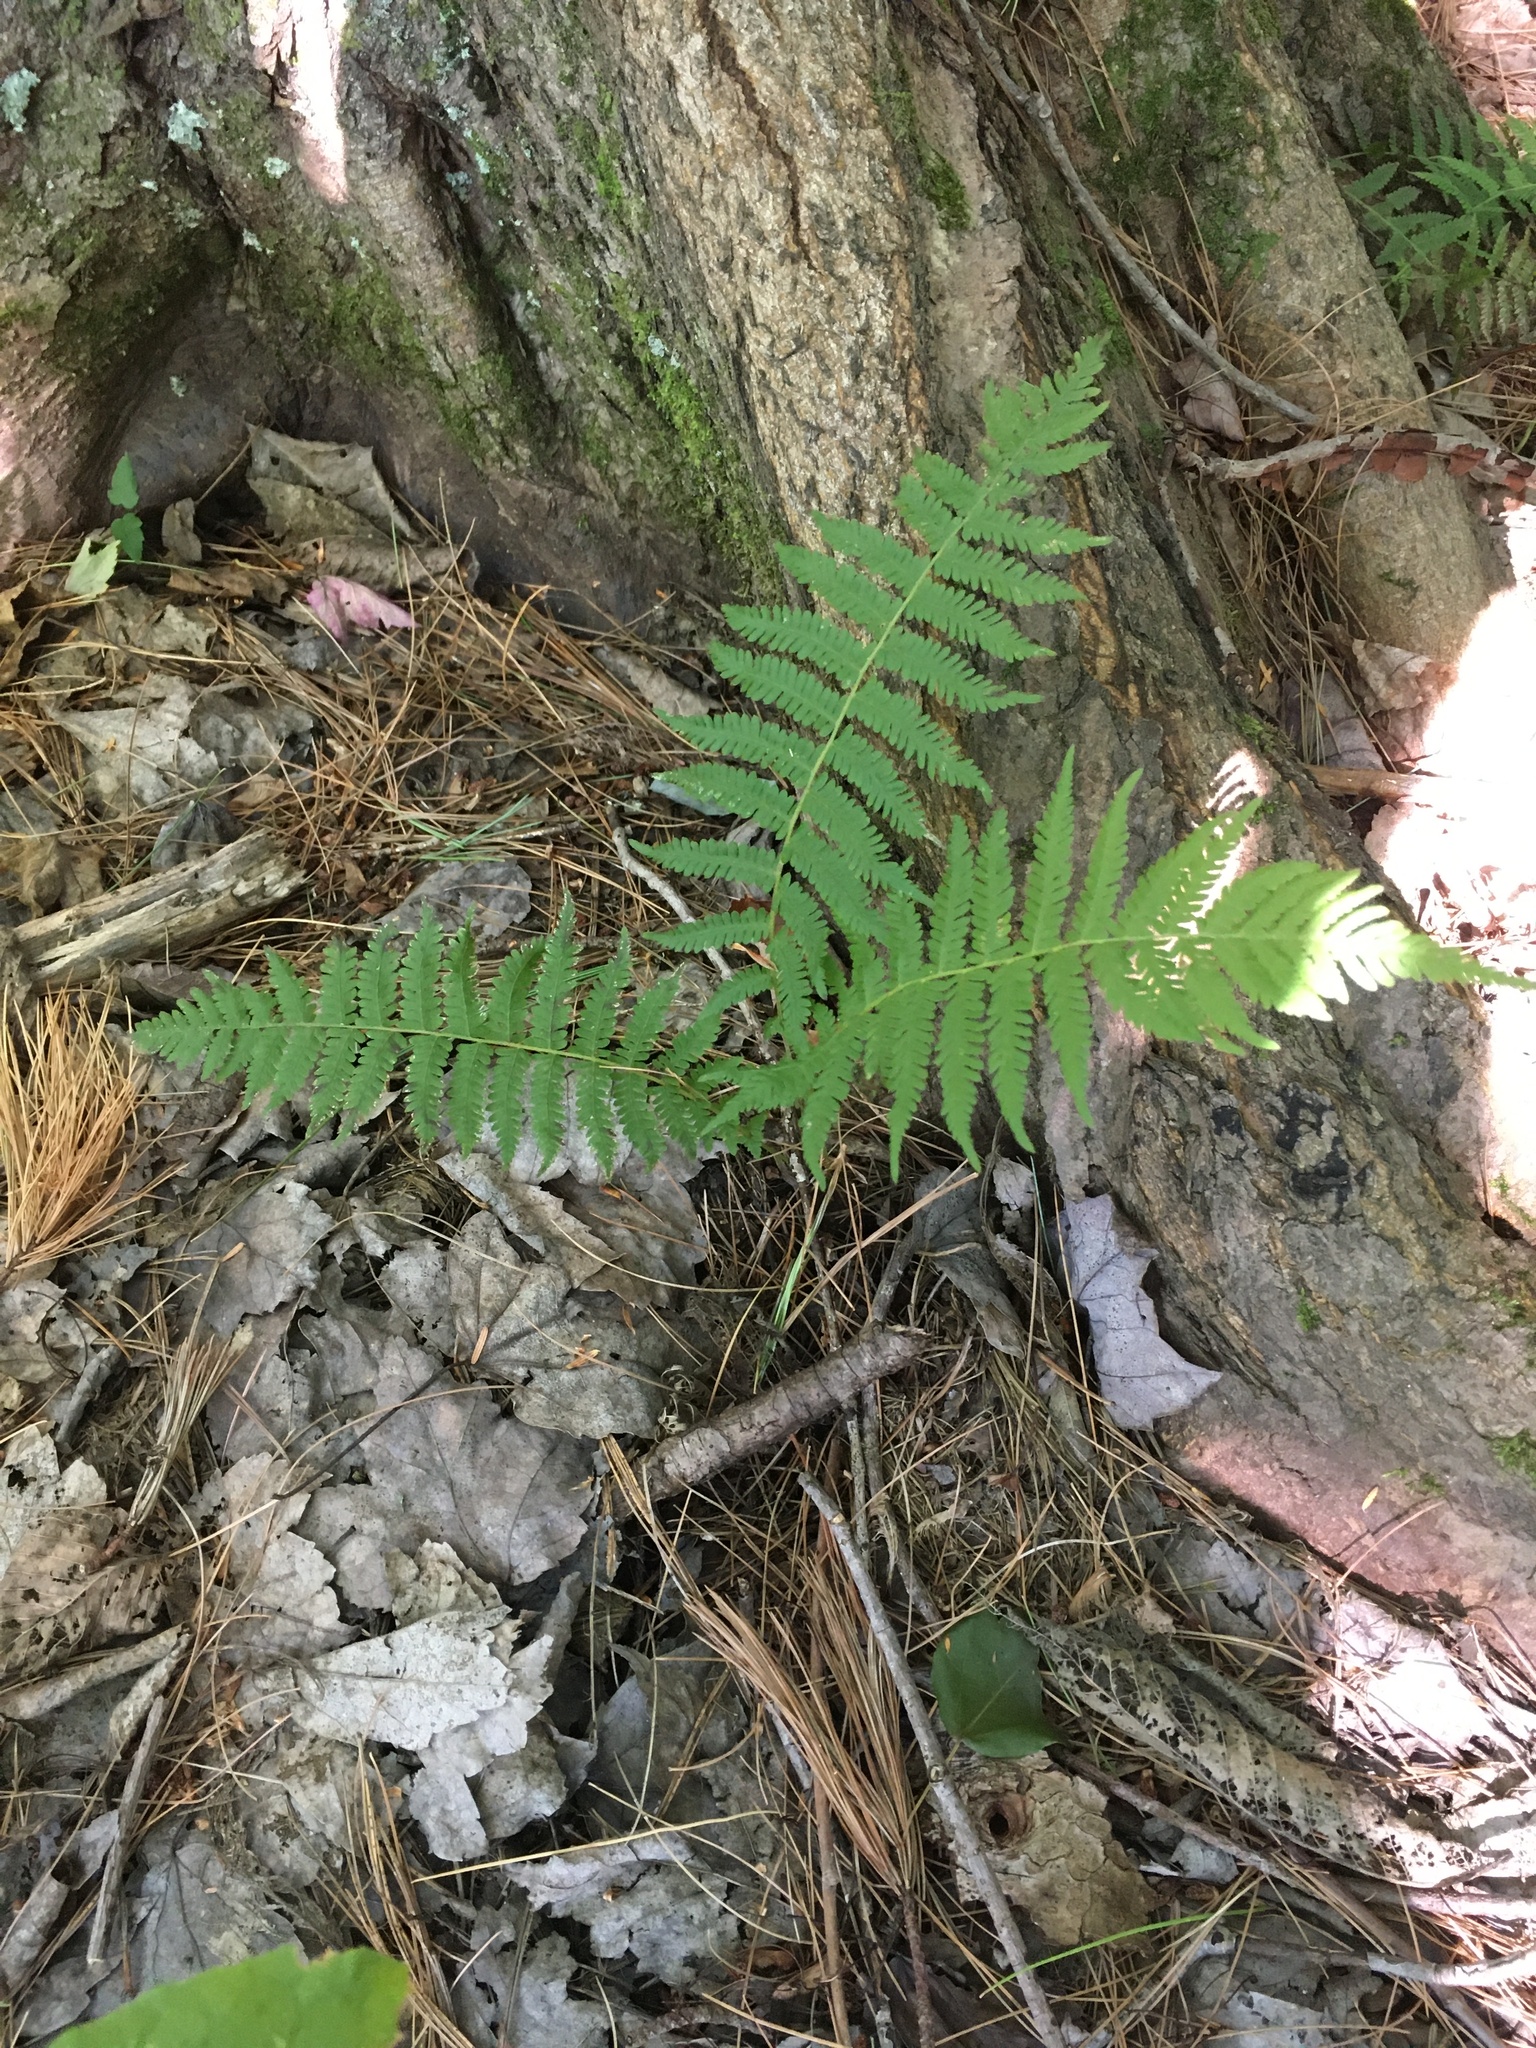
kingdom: Plantae
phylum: Tracheophyta
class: Polypodiopsida
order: Polypodiales
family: Thelypteridaceae
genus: Amauropelta
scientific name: Amauropelta noveboracensis
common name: New york fern
